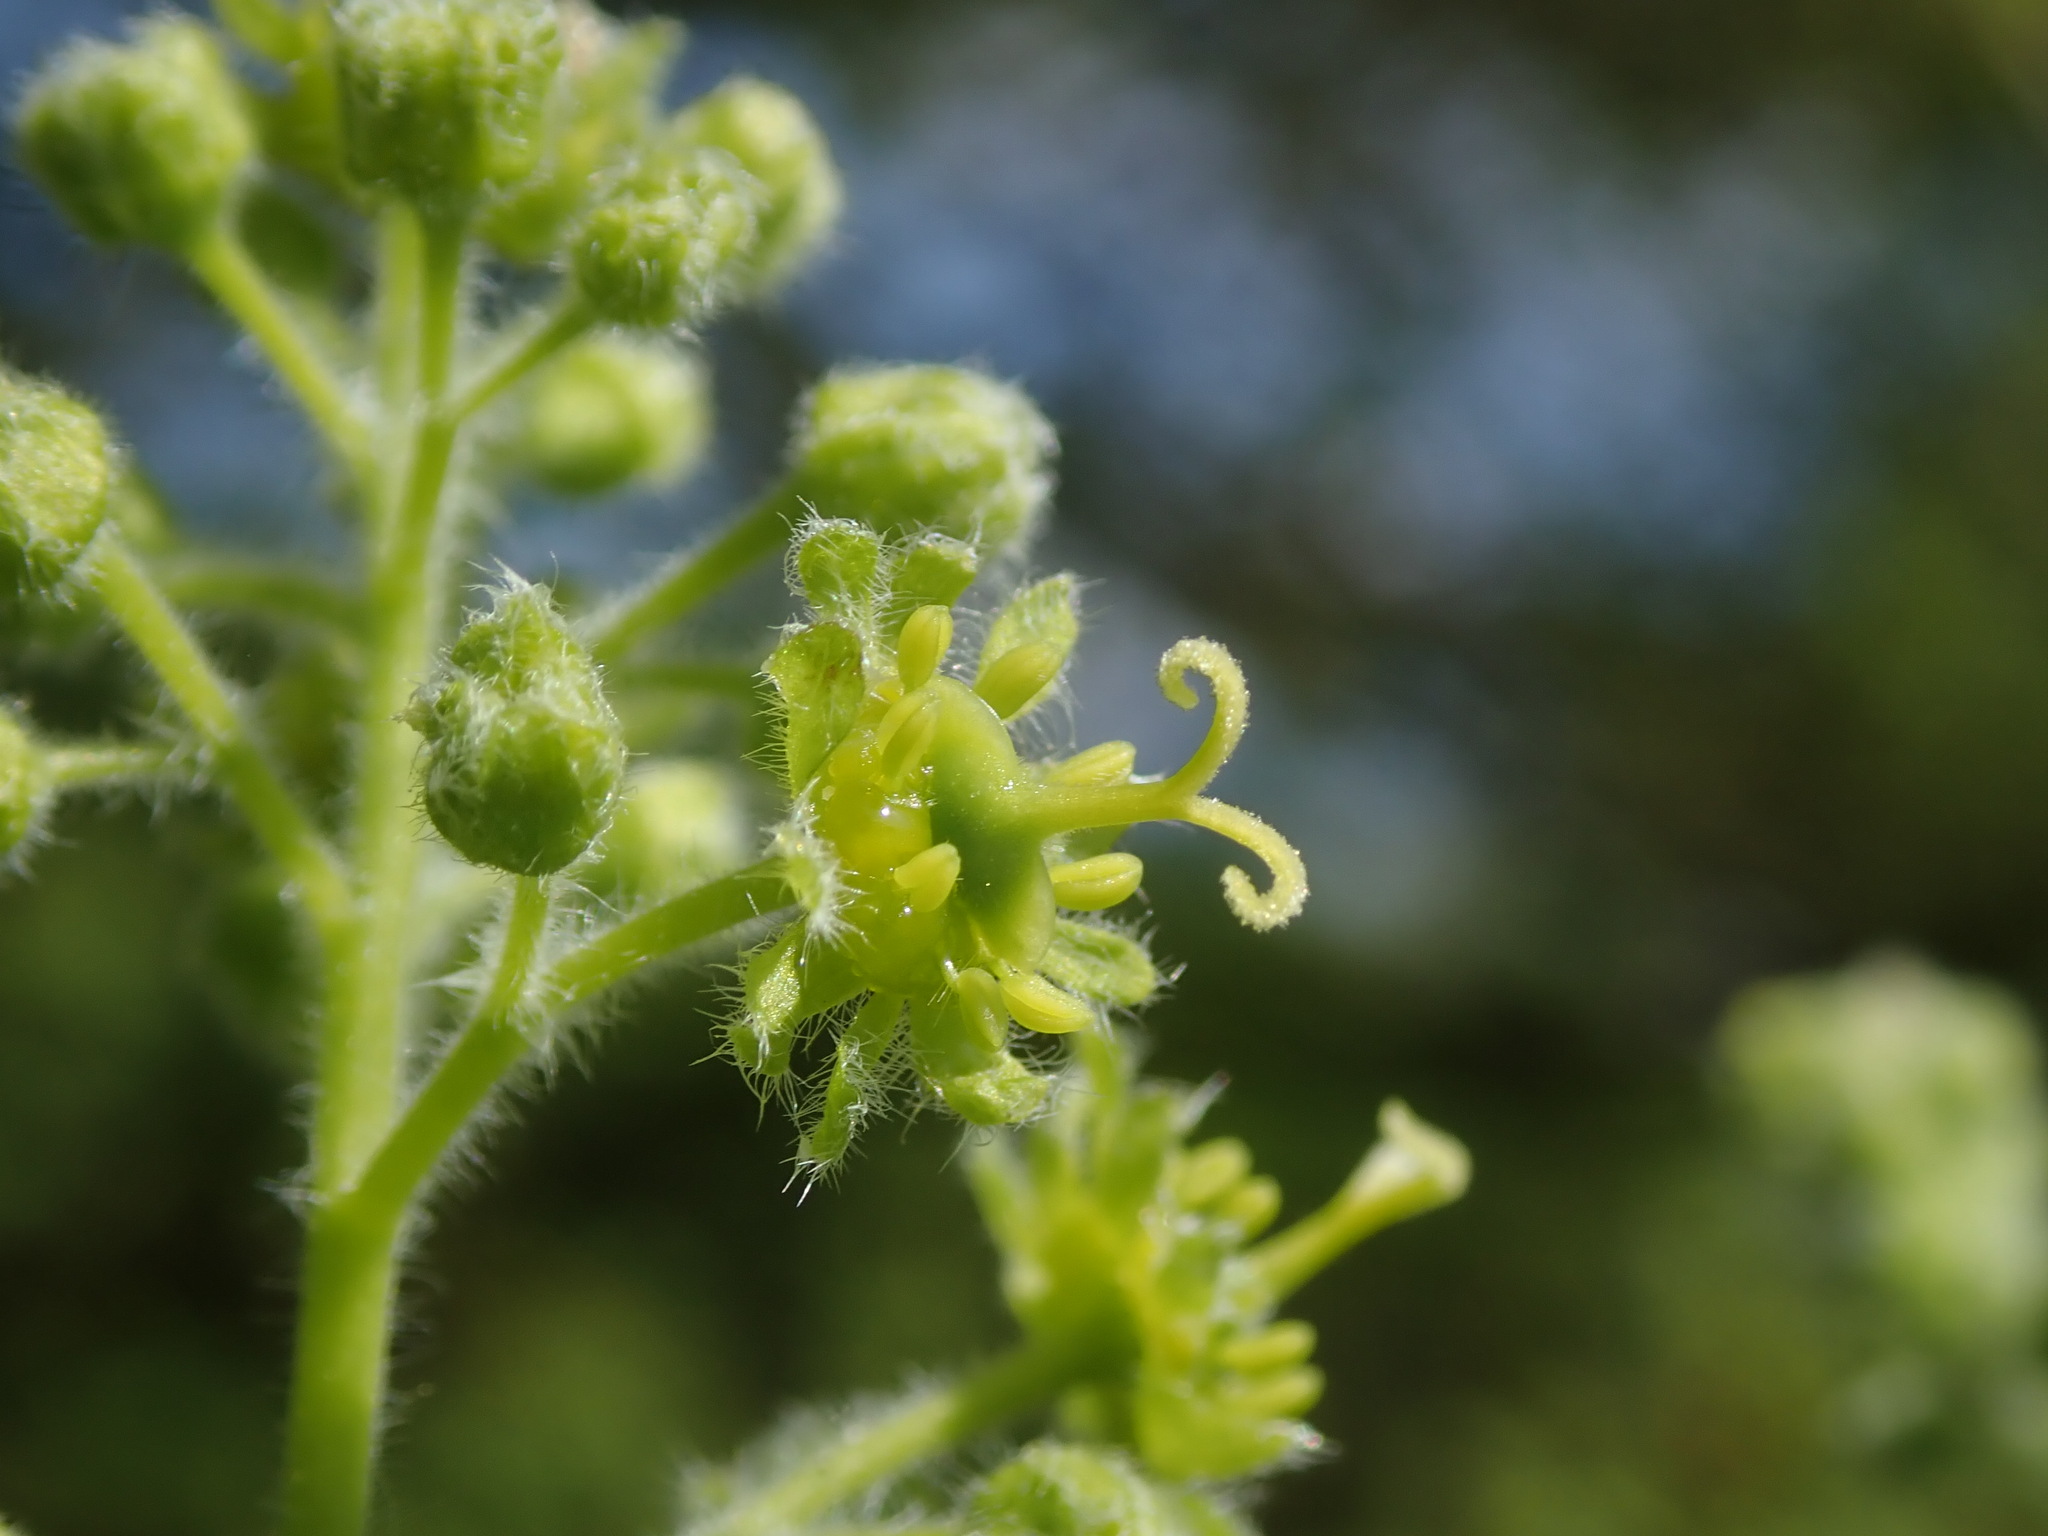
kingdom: Plantae
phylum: Tracheophyta
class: Magnoliopsida
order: Sapindales
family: Sapindaceae
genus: Acer
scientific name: Acer campestre
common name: Field maple
